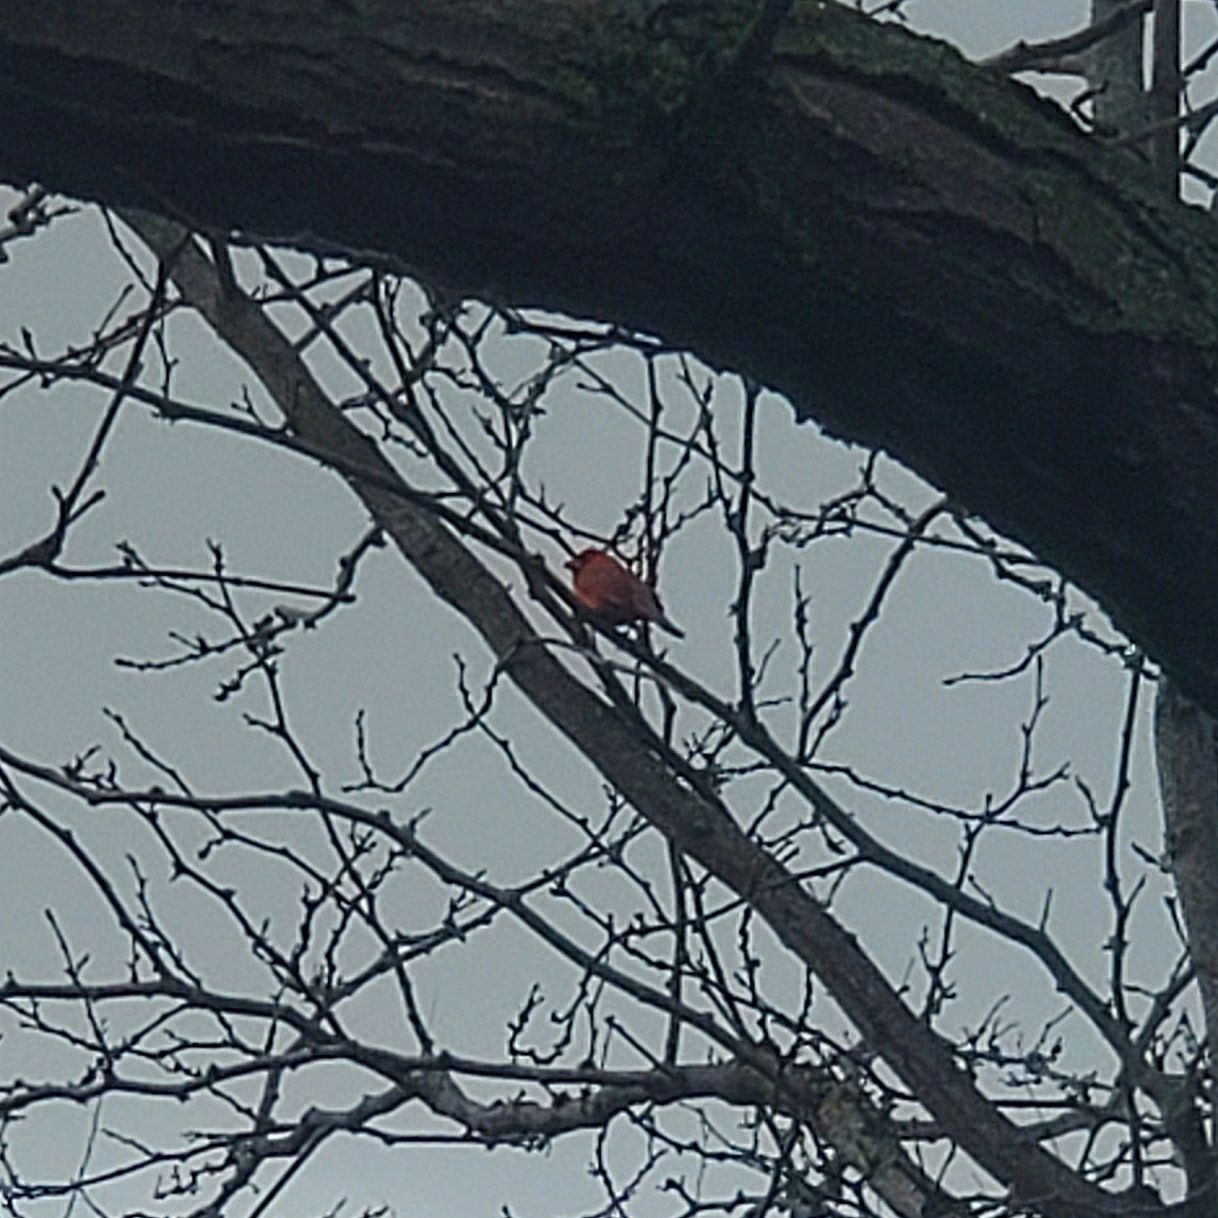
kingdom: Animalia
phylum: Chordata
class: Aves
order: Passeriformes
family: Cardinalidae
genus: Cardinalis
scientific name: Cardinalis cardinalis
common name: Northern cardinal
